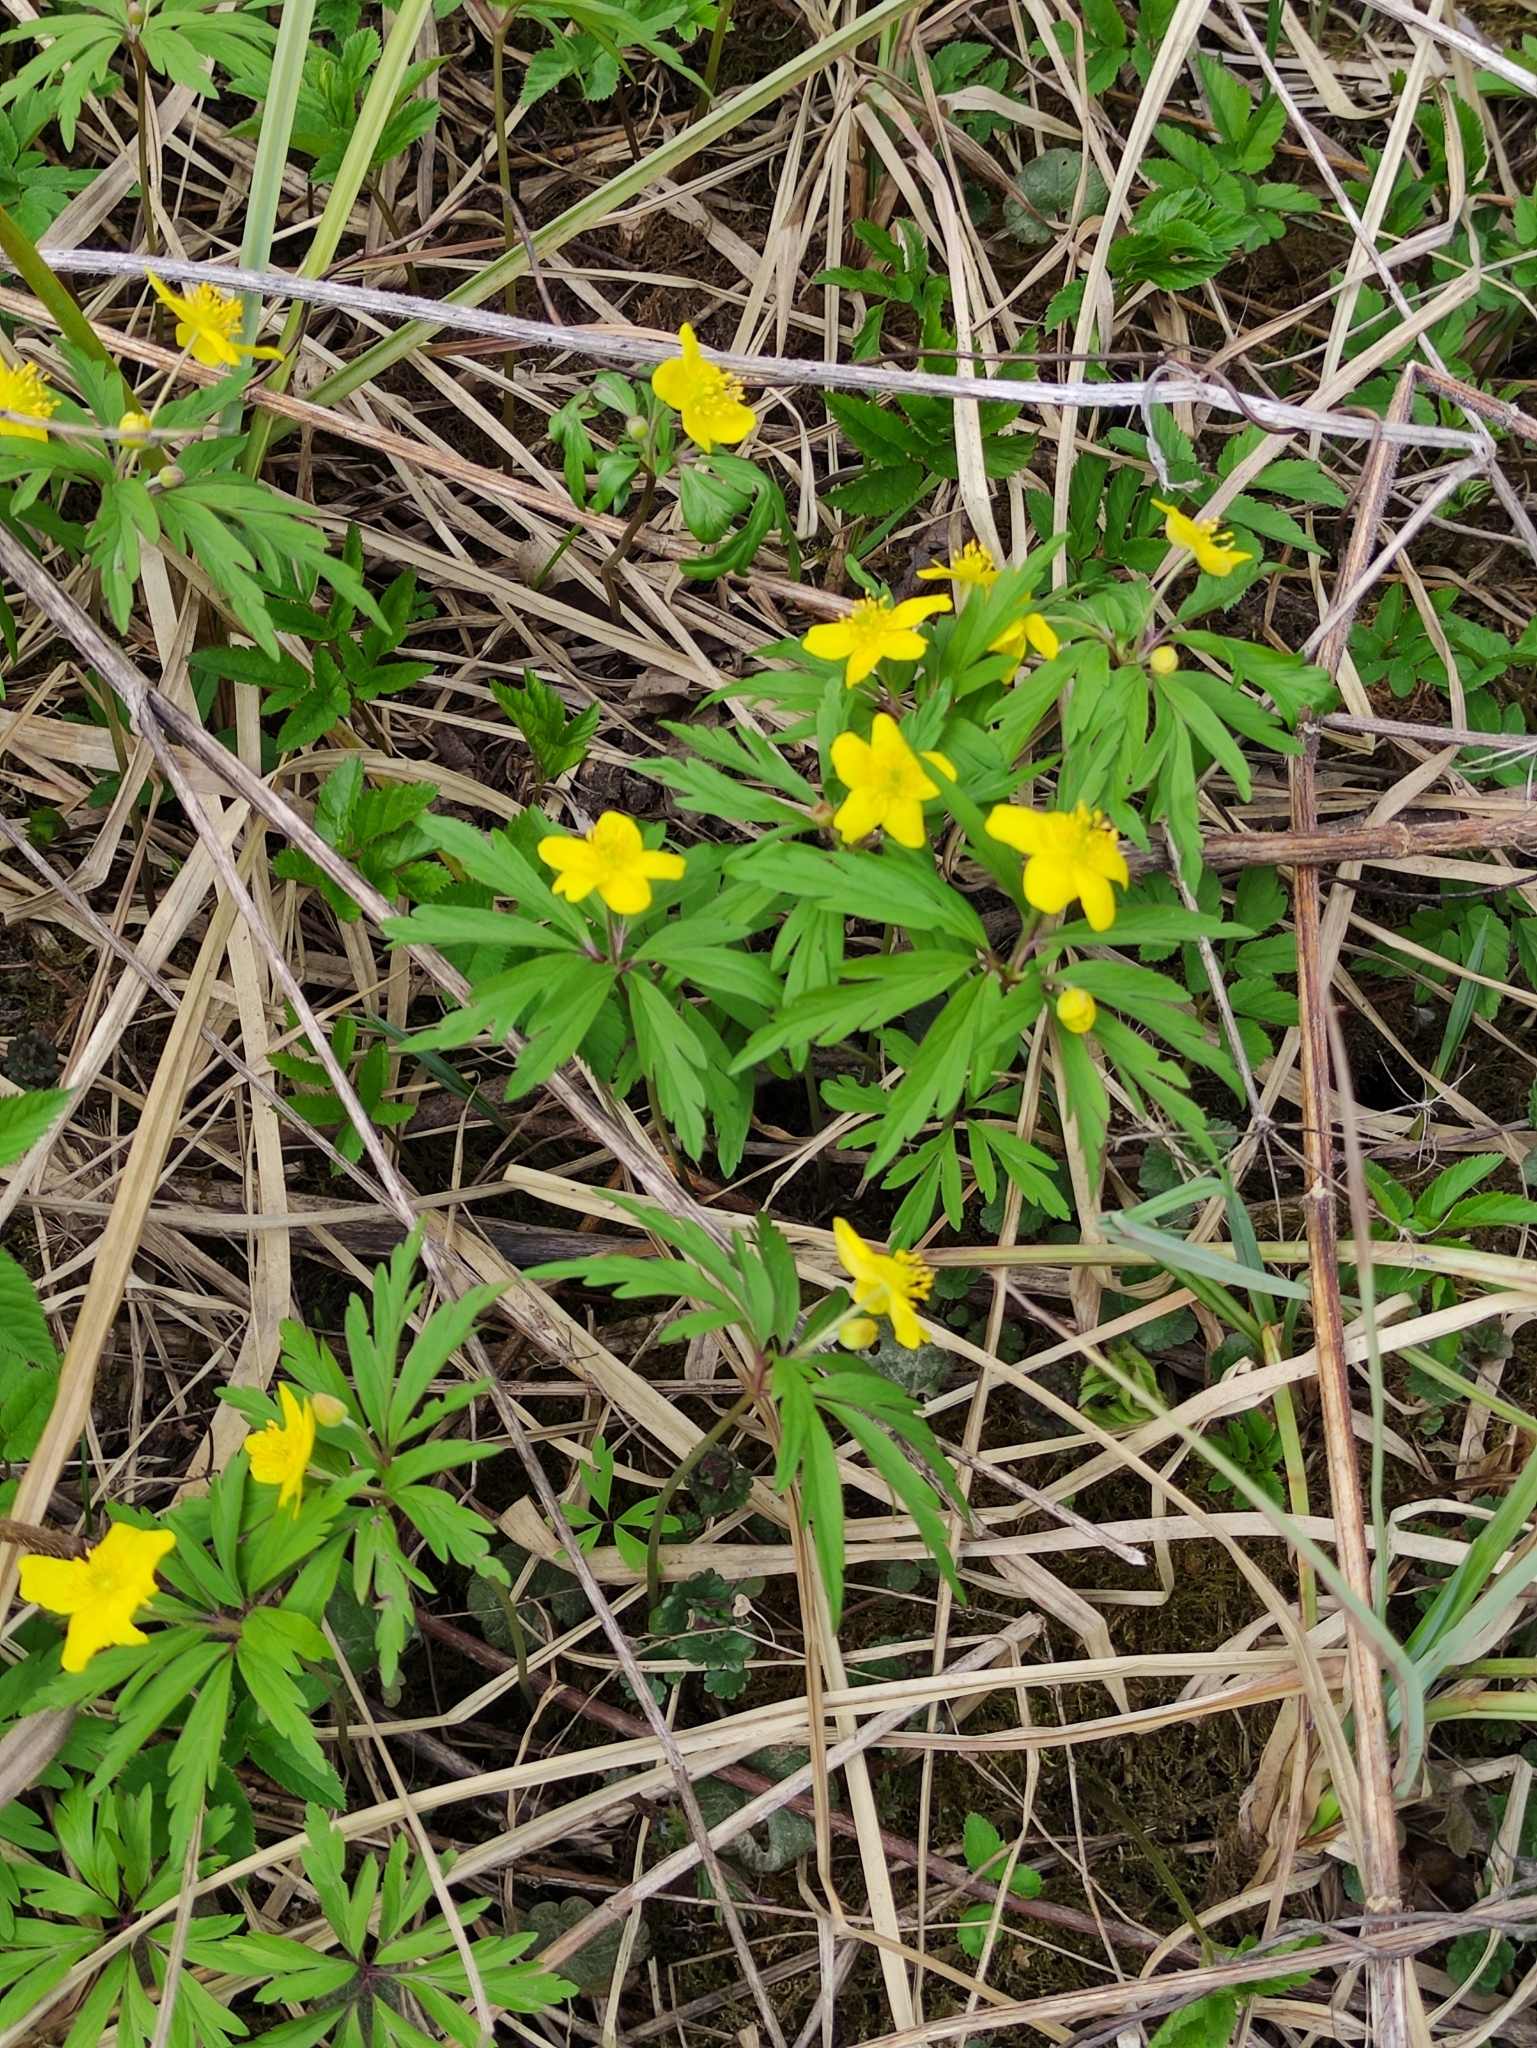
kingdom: Plantae
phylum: Tracheophyta
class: Magnoliopsida
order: Ranunculales
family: Ranunculaceae
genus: Anemone
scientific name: Anemone ranunculoides
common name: Yellow anemone
